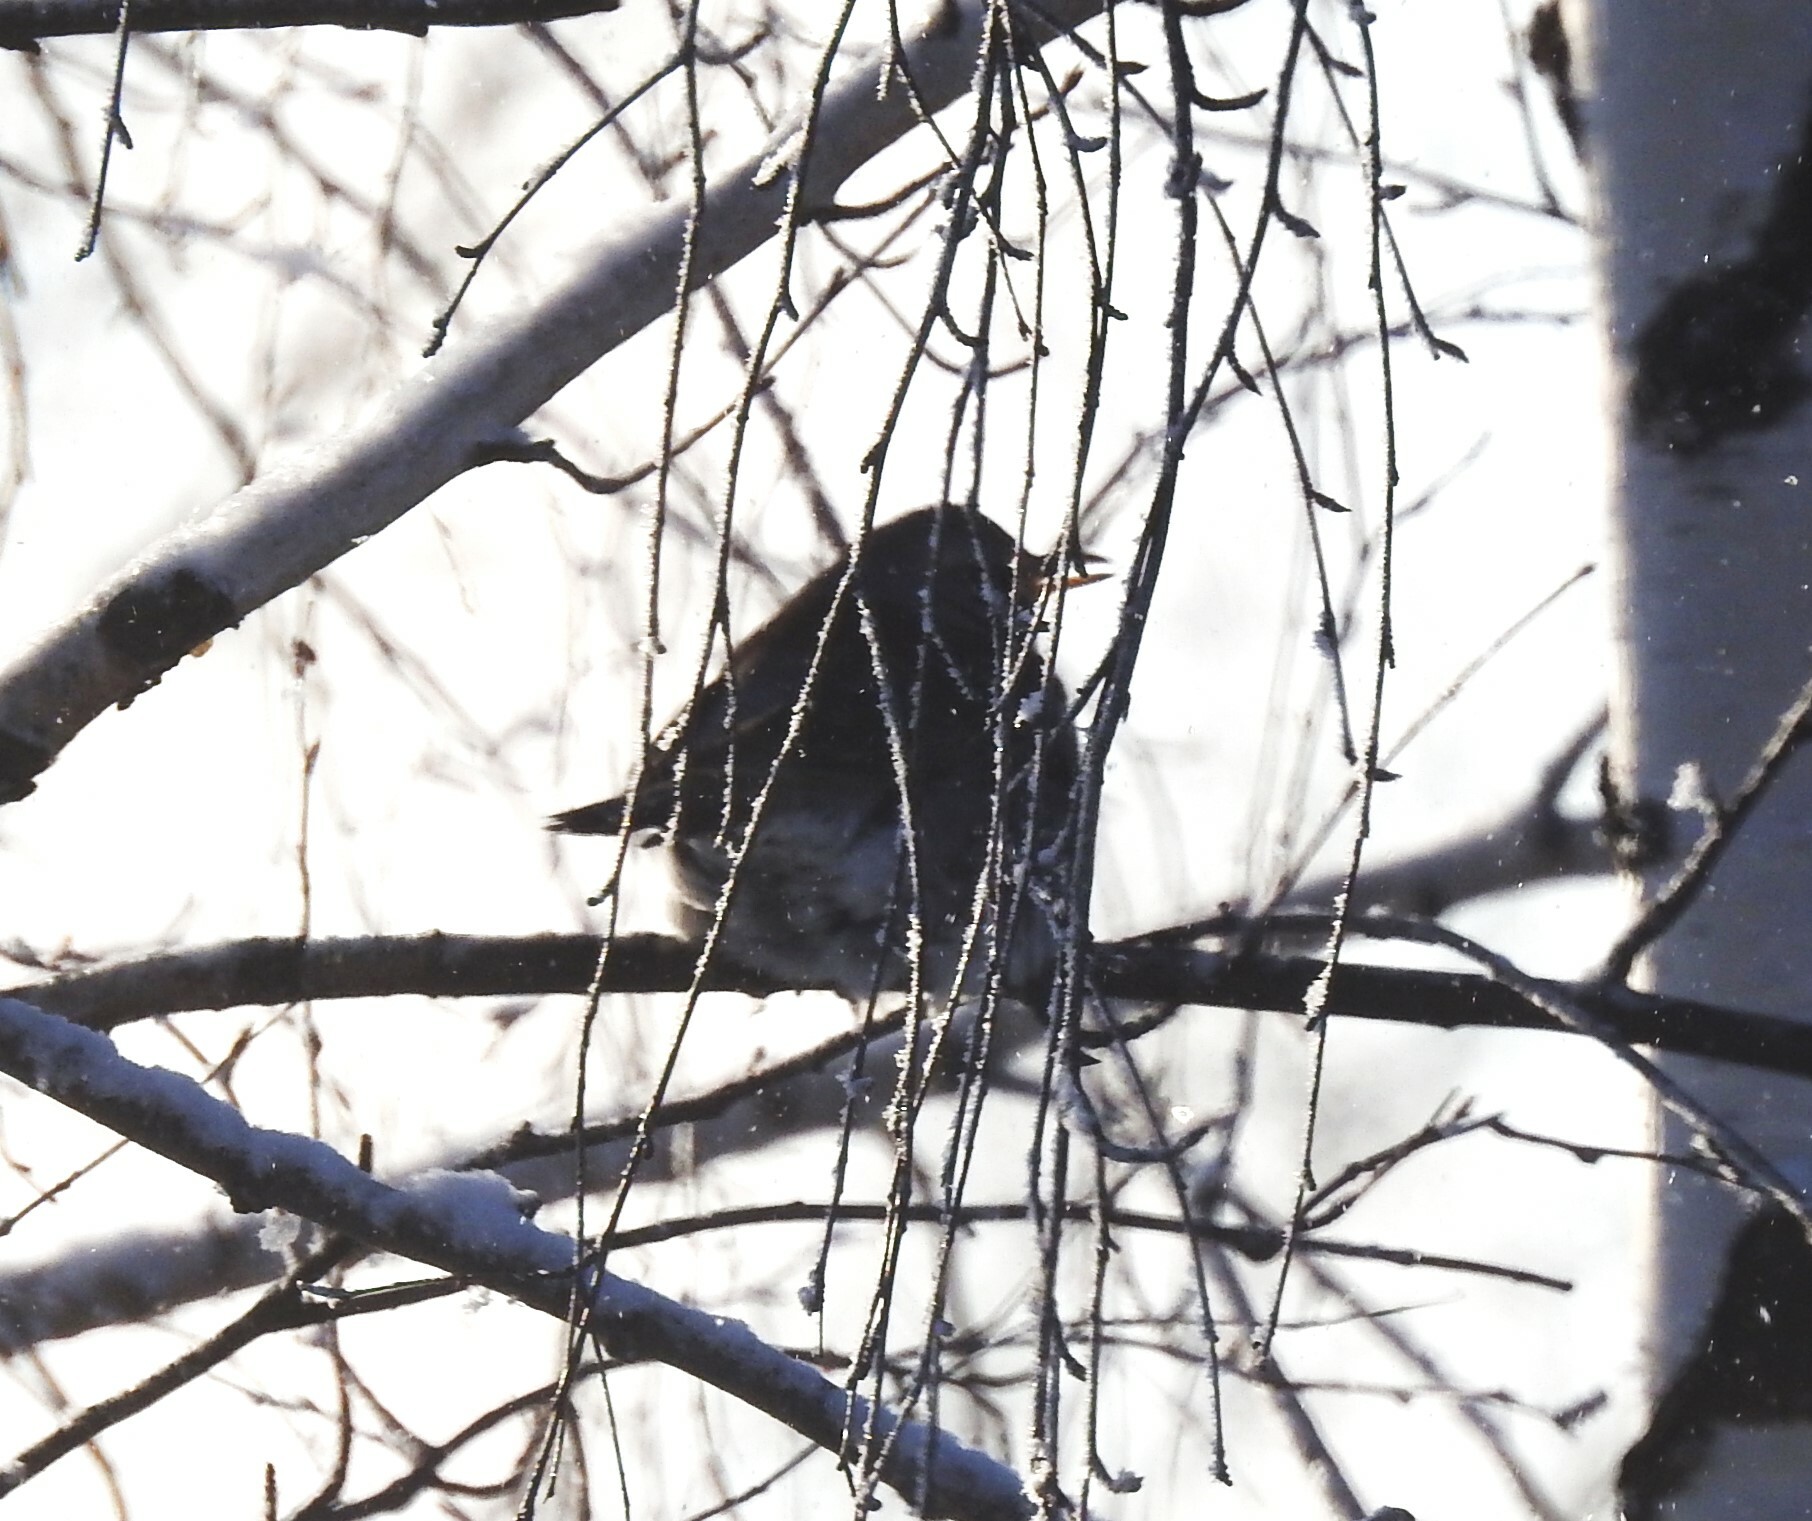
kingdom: Animalia
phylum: Chordata
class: Aves
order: Passeriformes
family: Turdidae
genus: Turdus
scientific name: Turdus pilaris
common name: Fieldfare
